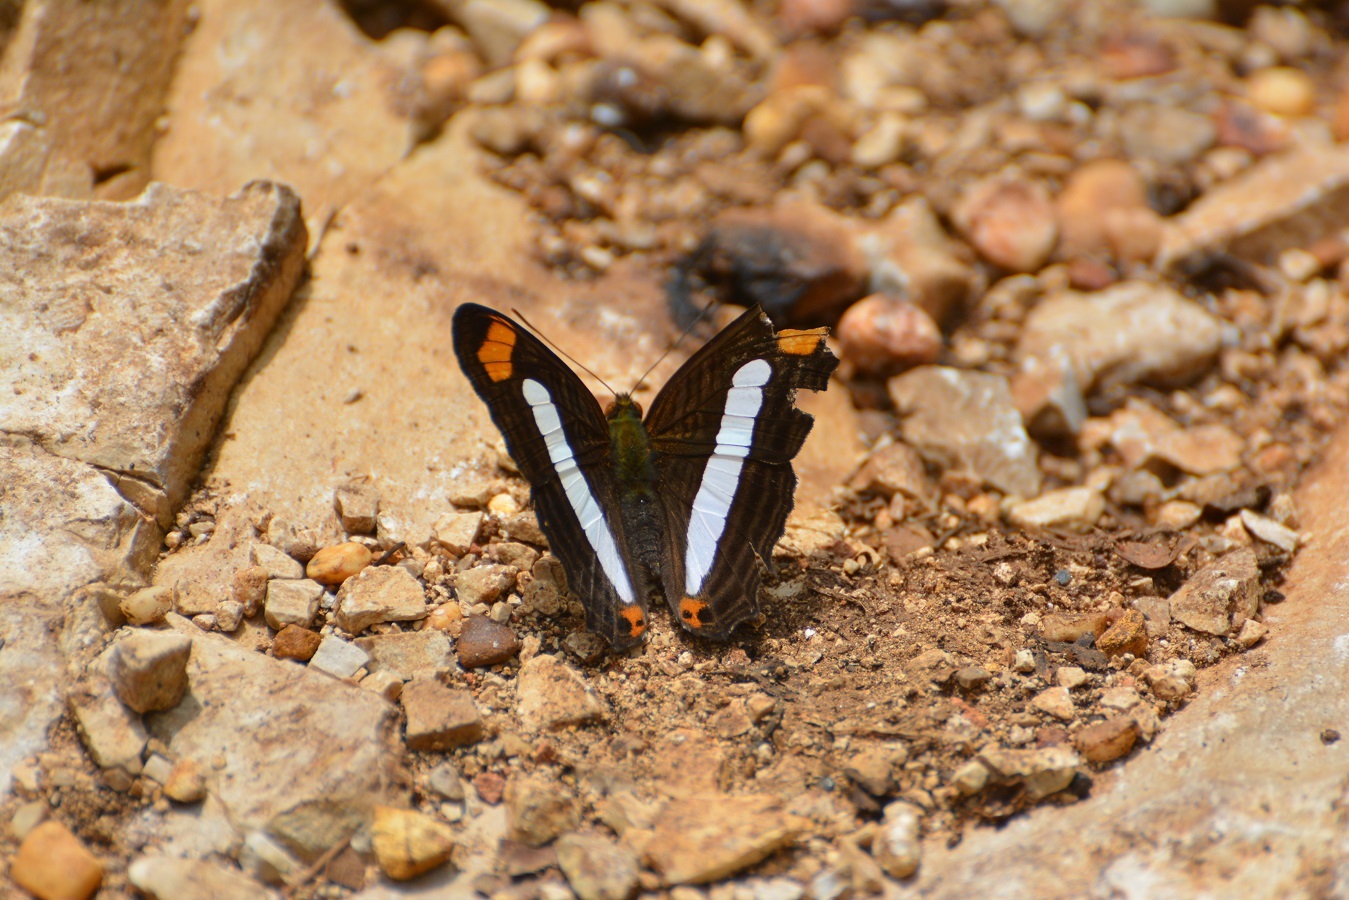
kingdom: Animalia
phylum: Arthropoda
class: Insecta
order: Lepidoptera
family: Nymphalidae
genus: Limenitis
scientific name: Limenitis iphiclus
